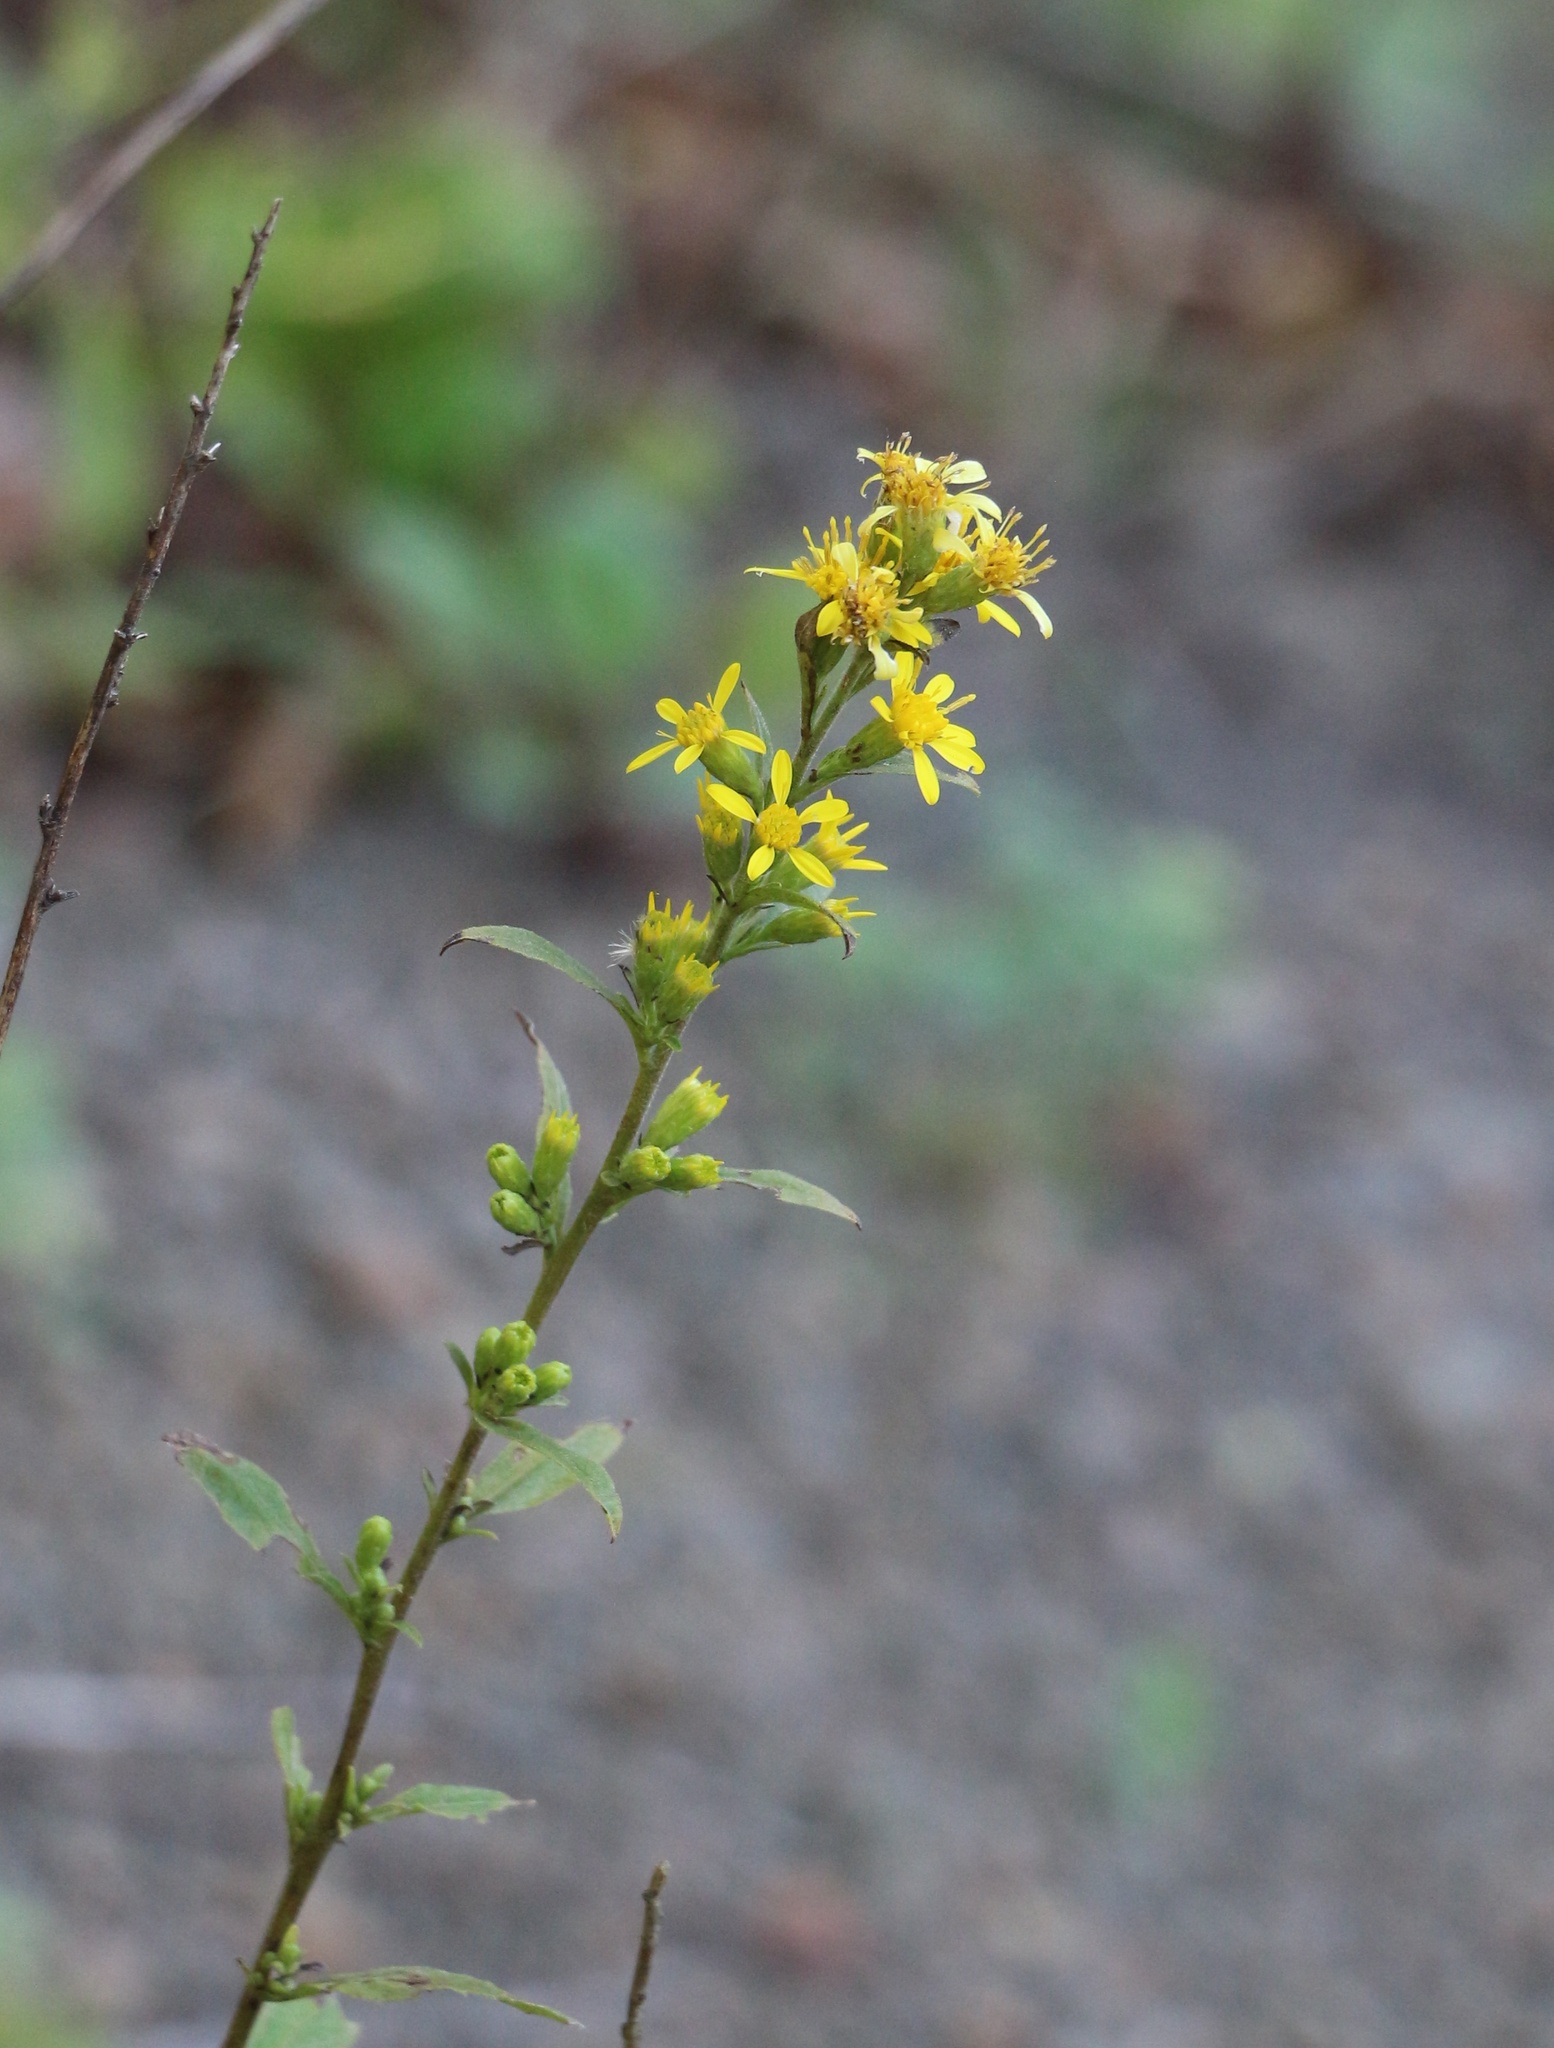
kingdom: Plantae
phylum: Tracheophyta
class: Magnoliopsida
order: Asterales
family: Asteraceae
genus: Solidago
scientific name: Solidago virgaurea
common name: Goldenrod
